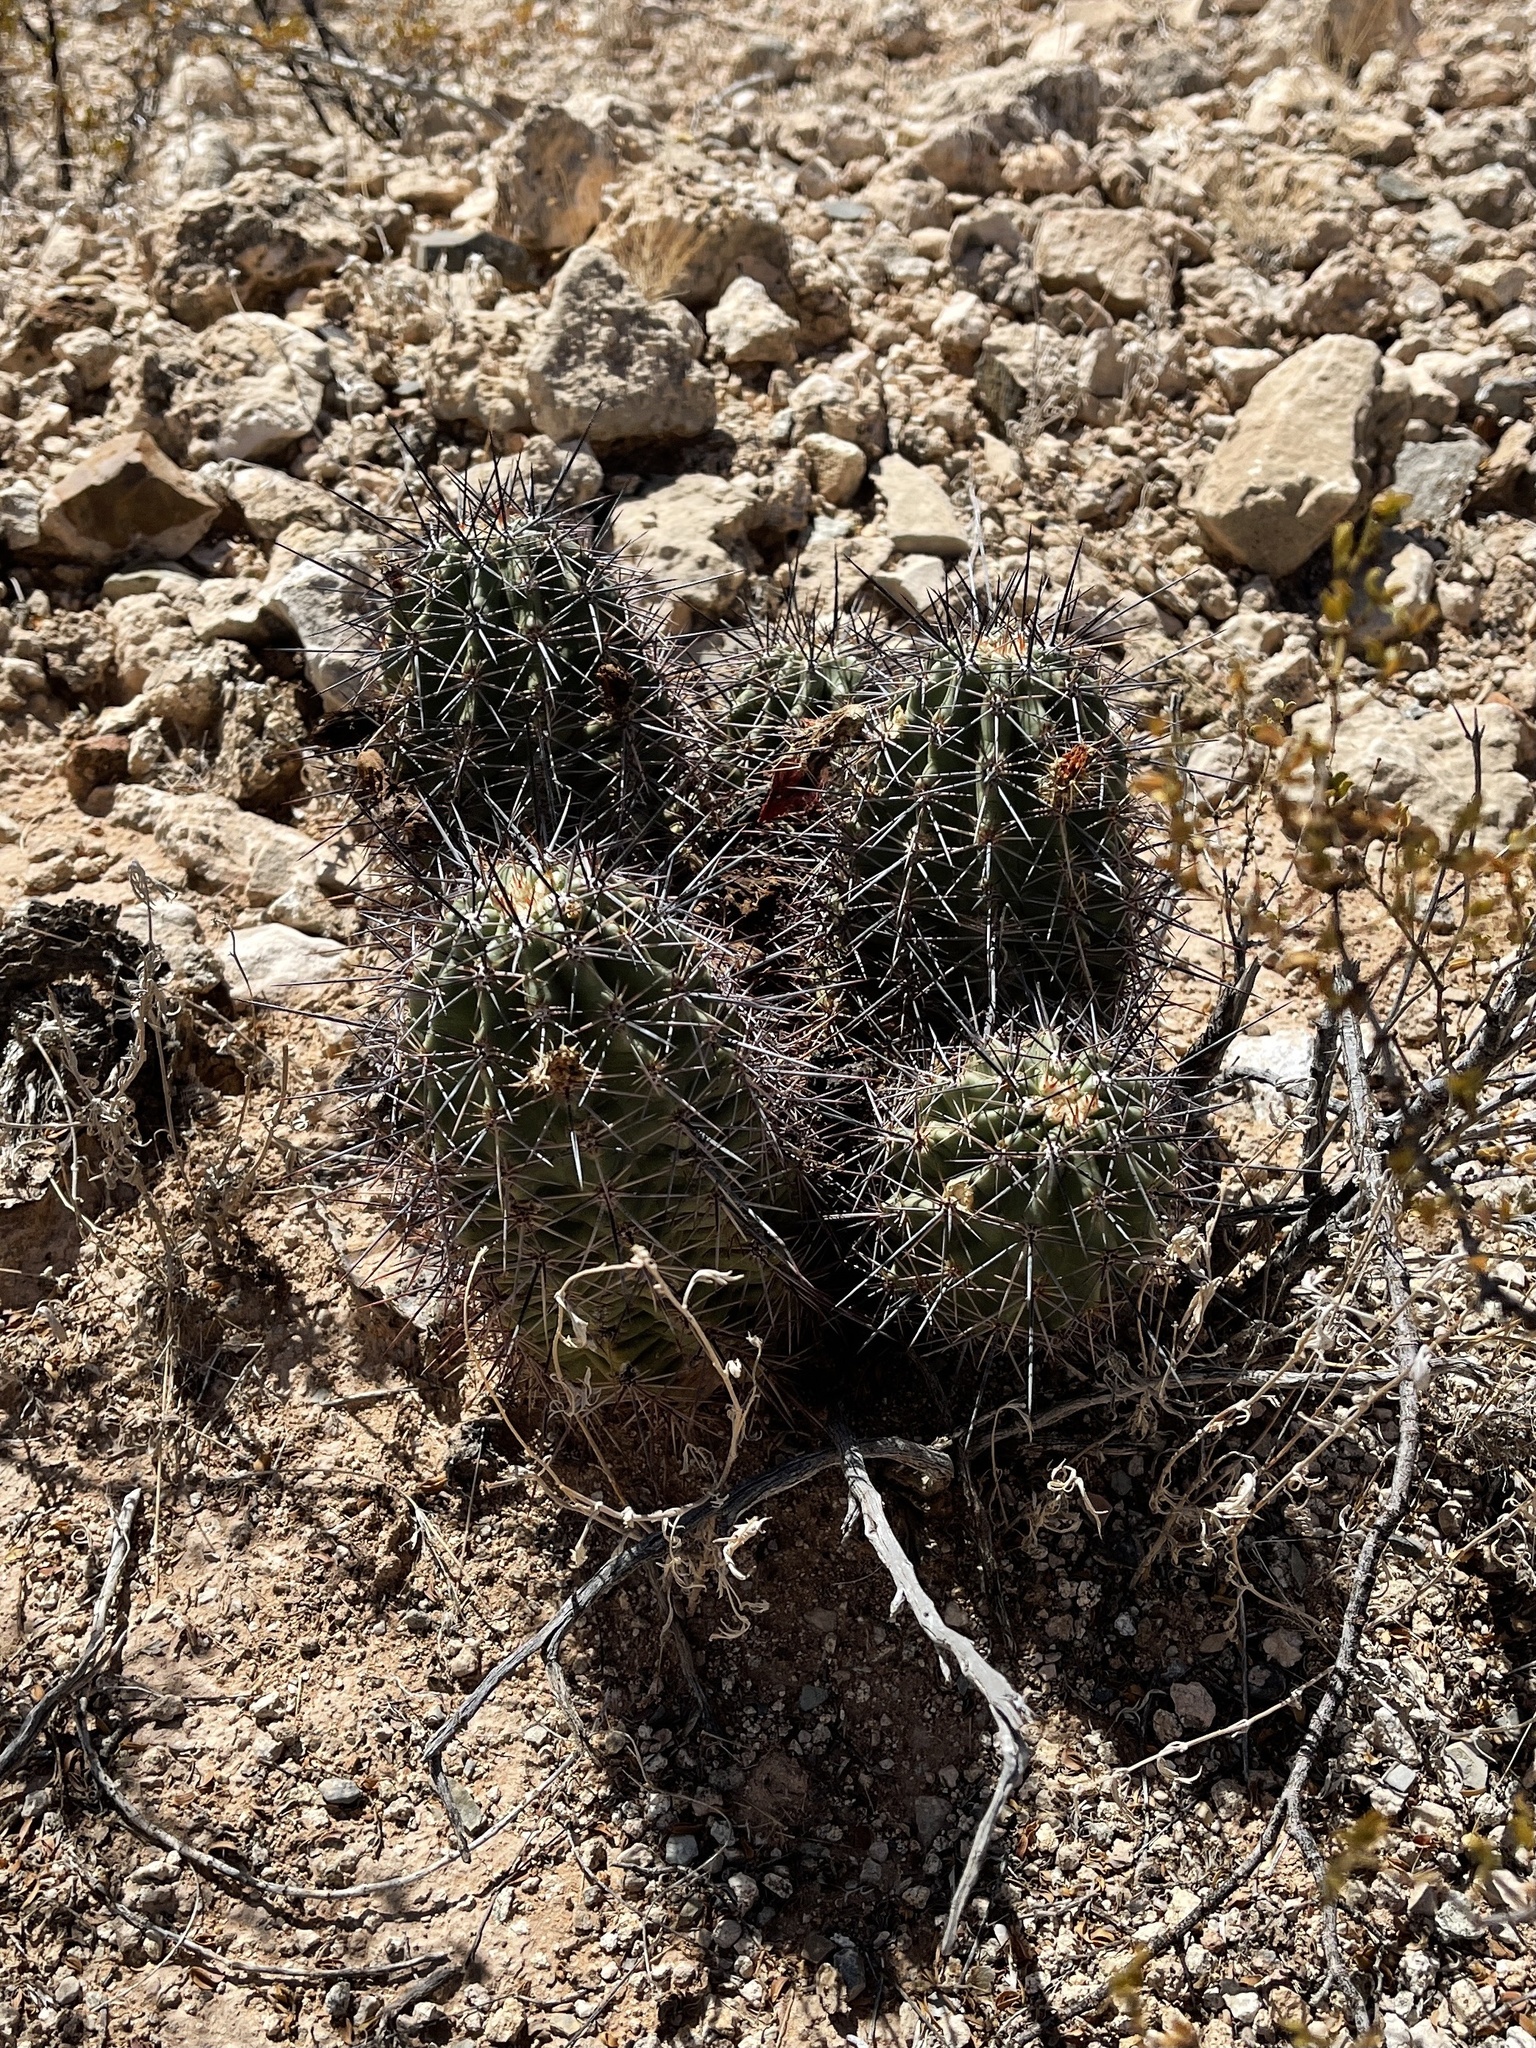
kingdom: Plantae
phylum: Tracheophyta
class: Magnoliopsida
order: Caryophyllales
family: Cactaceae
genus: Echinocereus
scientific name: Echinocereus coccineus
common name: Scarlet hedgehog cactus
